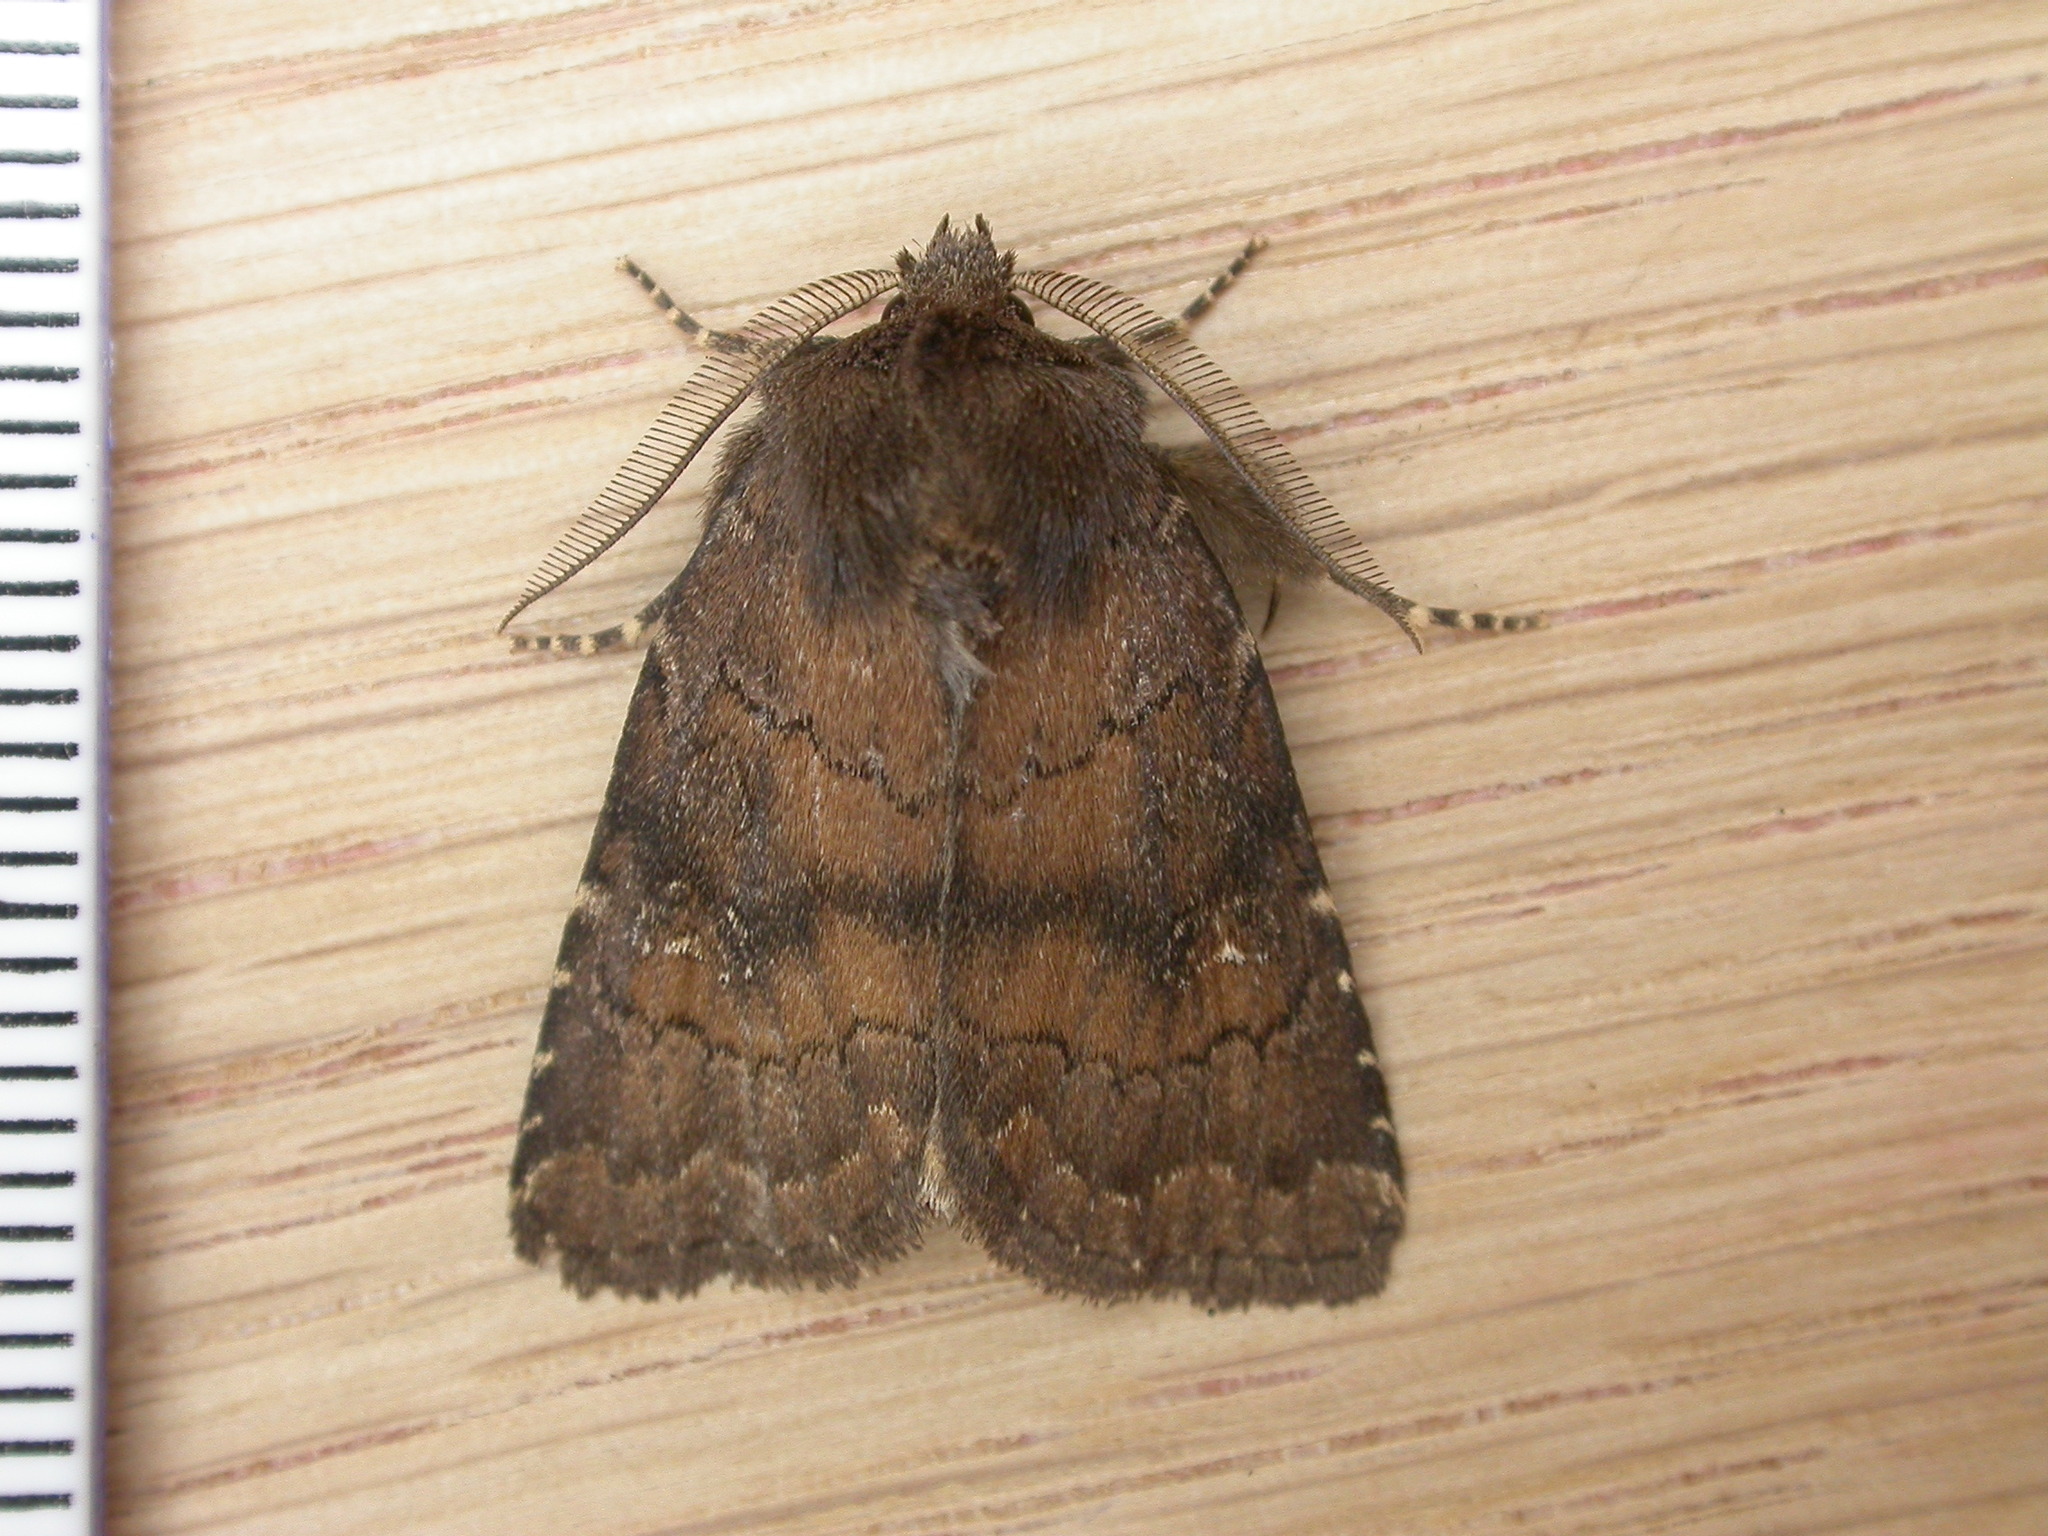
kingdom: Animalia
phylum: Arthropoda
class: Insecta
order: Lepidoptera
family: Noctuidae
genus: Charanyca
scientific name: Charanyca ferruginea
